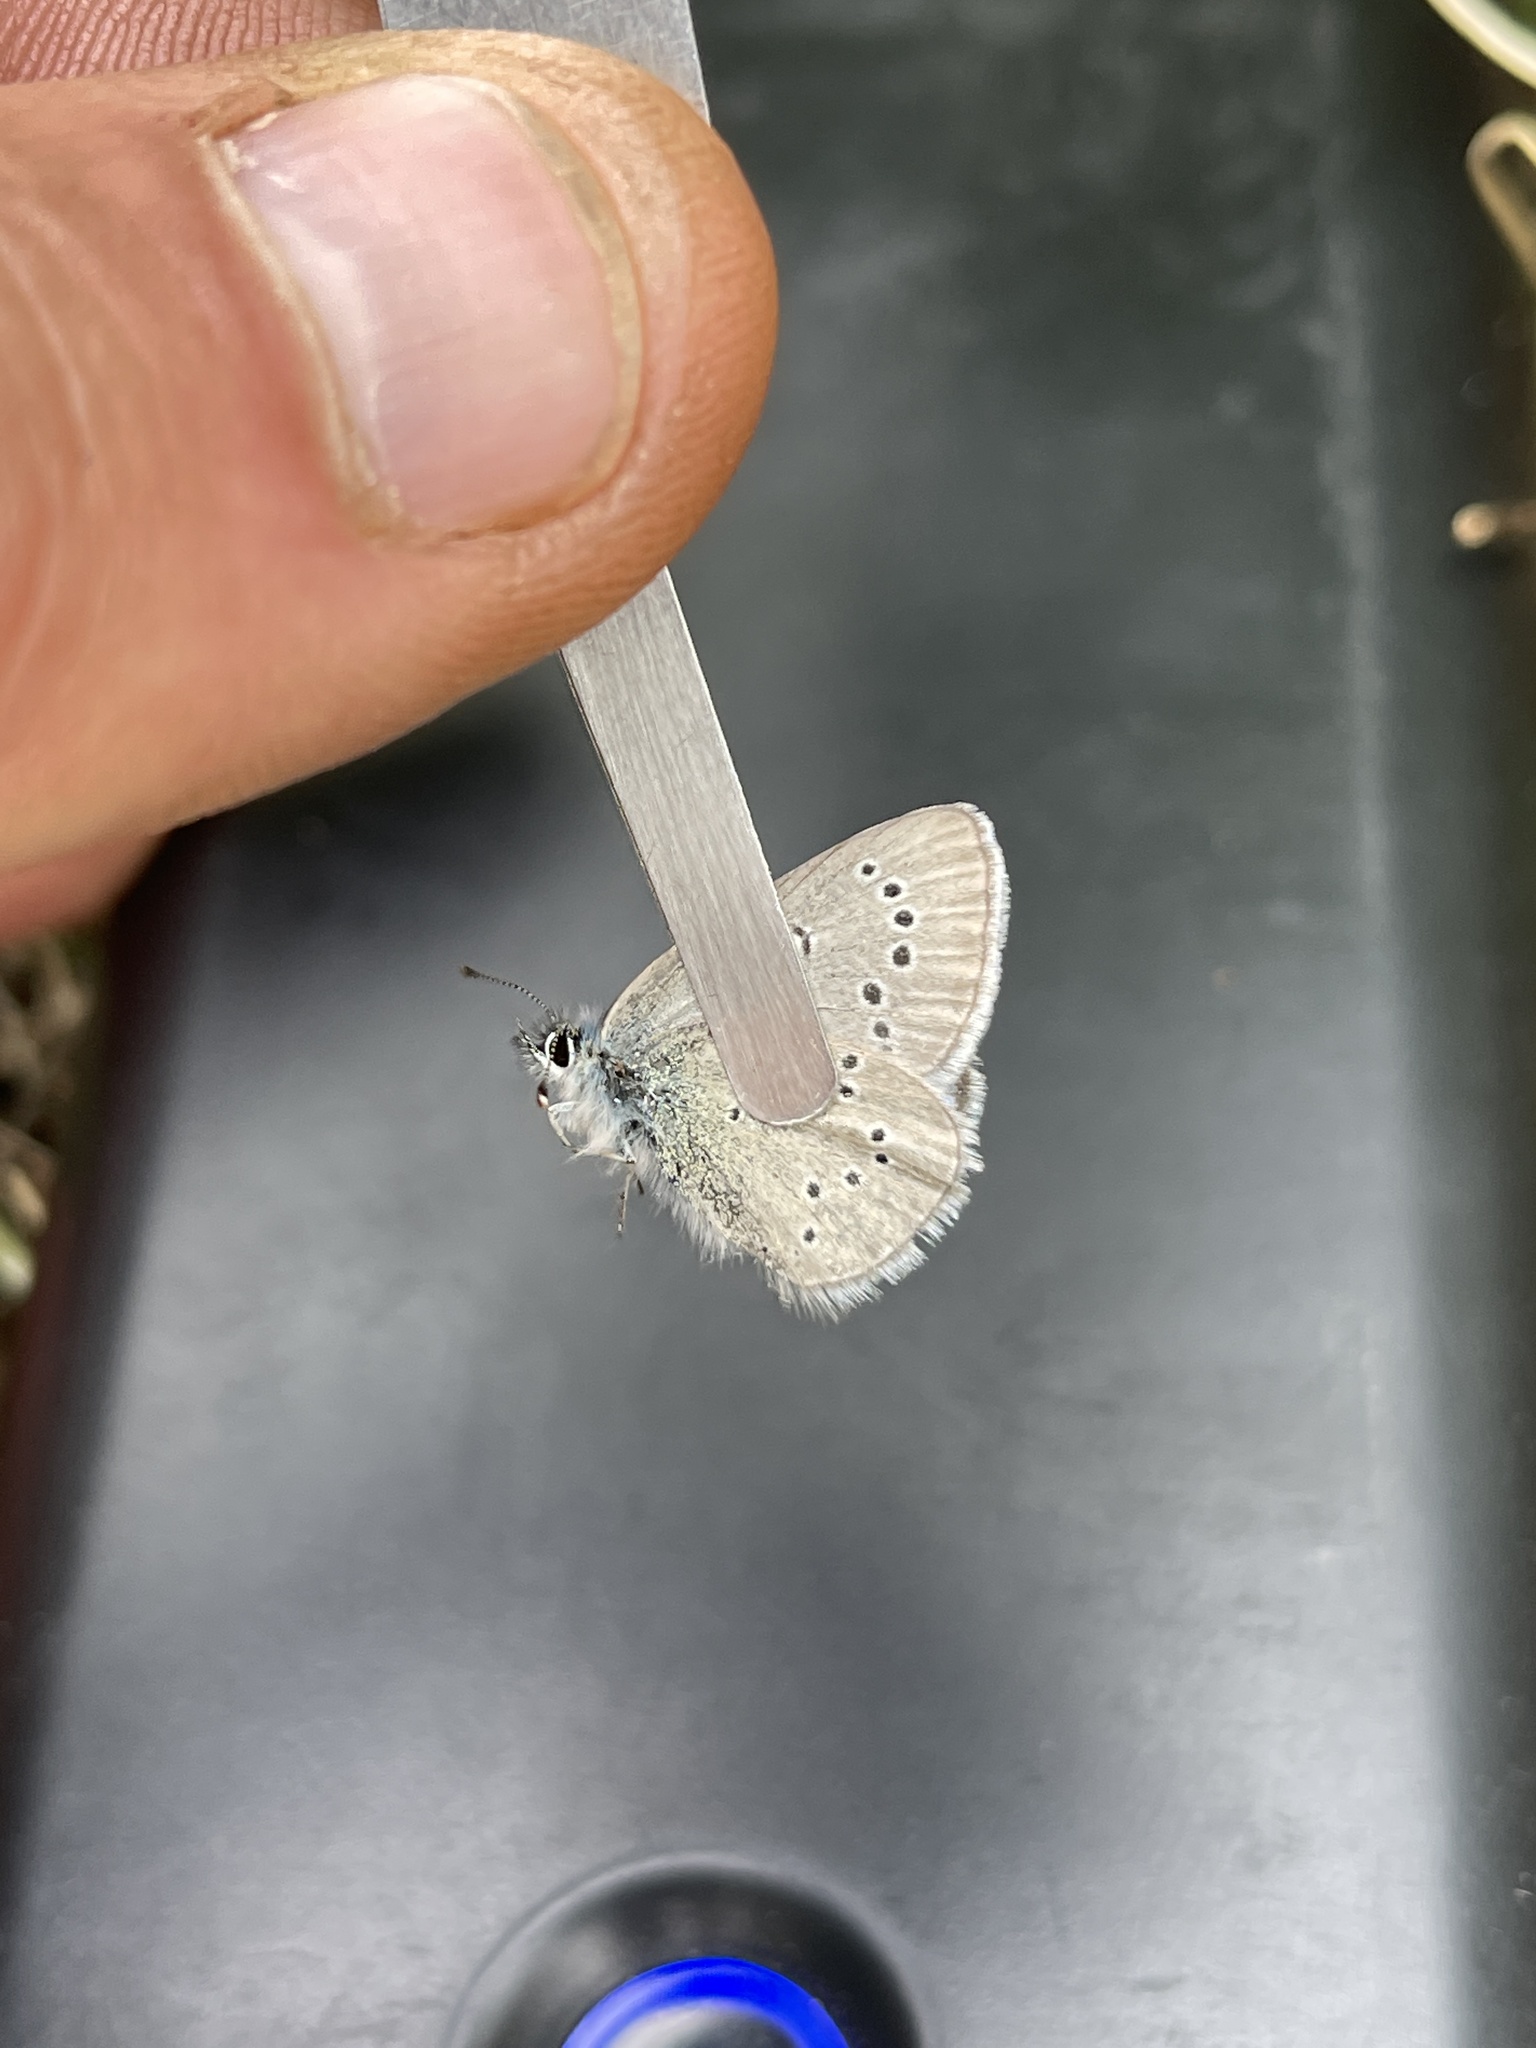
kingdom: Animalia
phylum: Arthropoda
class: Insecta
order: Lepidoptera
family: Lycaenidae
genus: Glaucopsyche
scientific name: Glaucopsyche lygdamus
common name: Silvery blue
